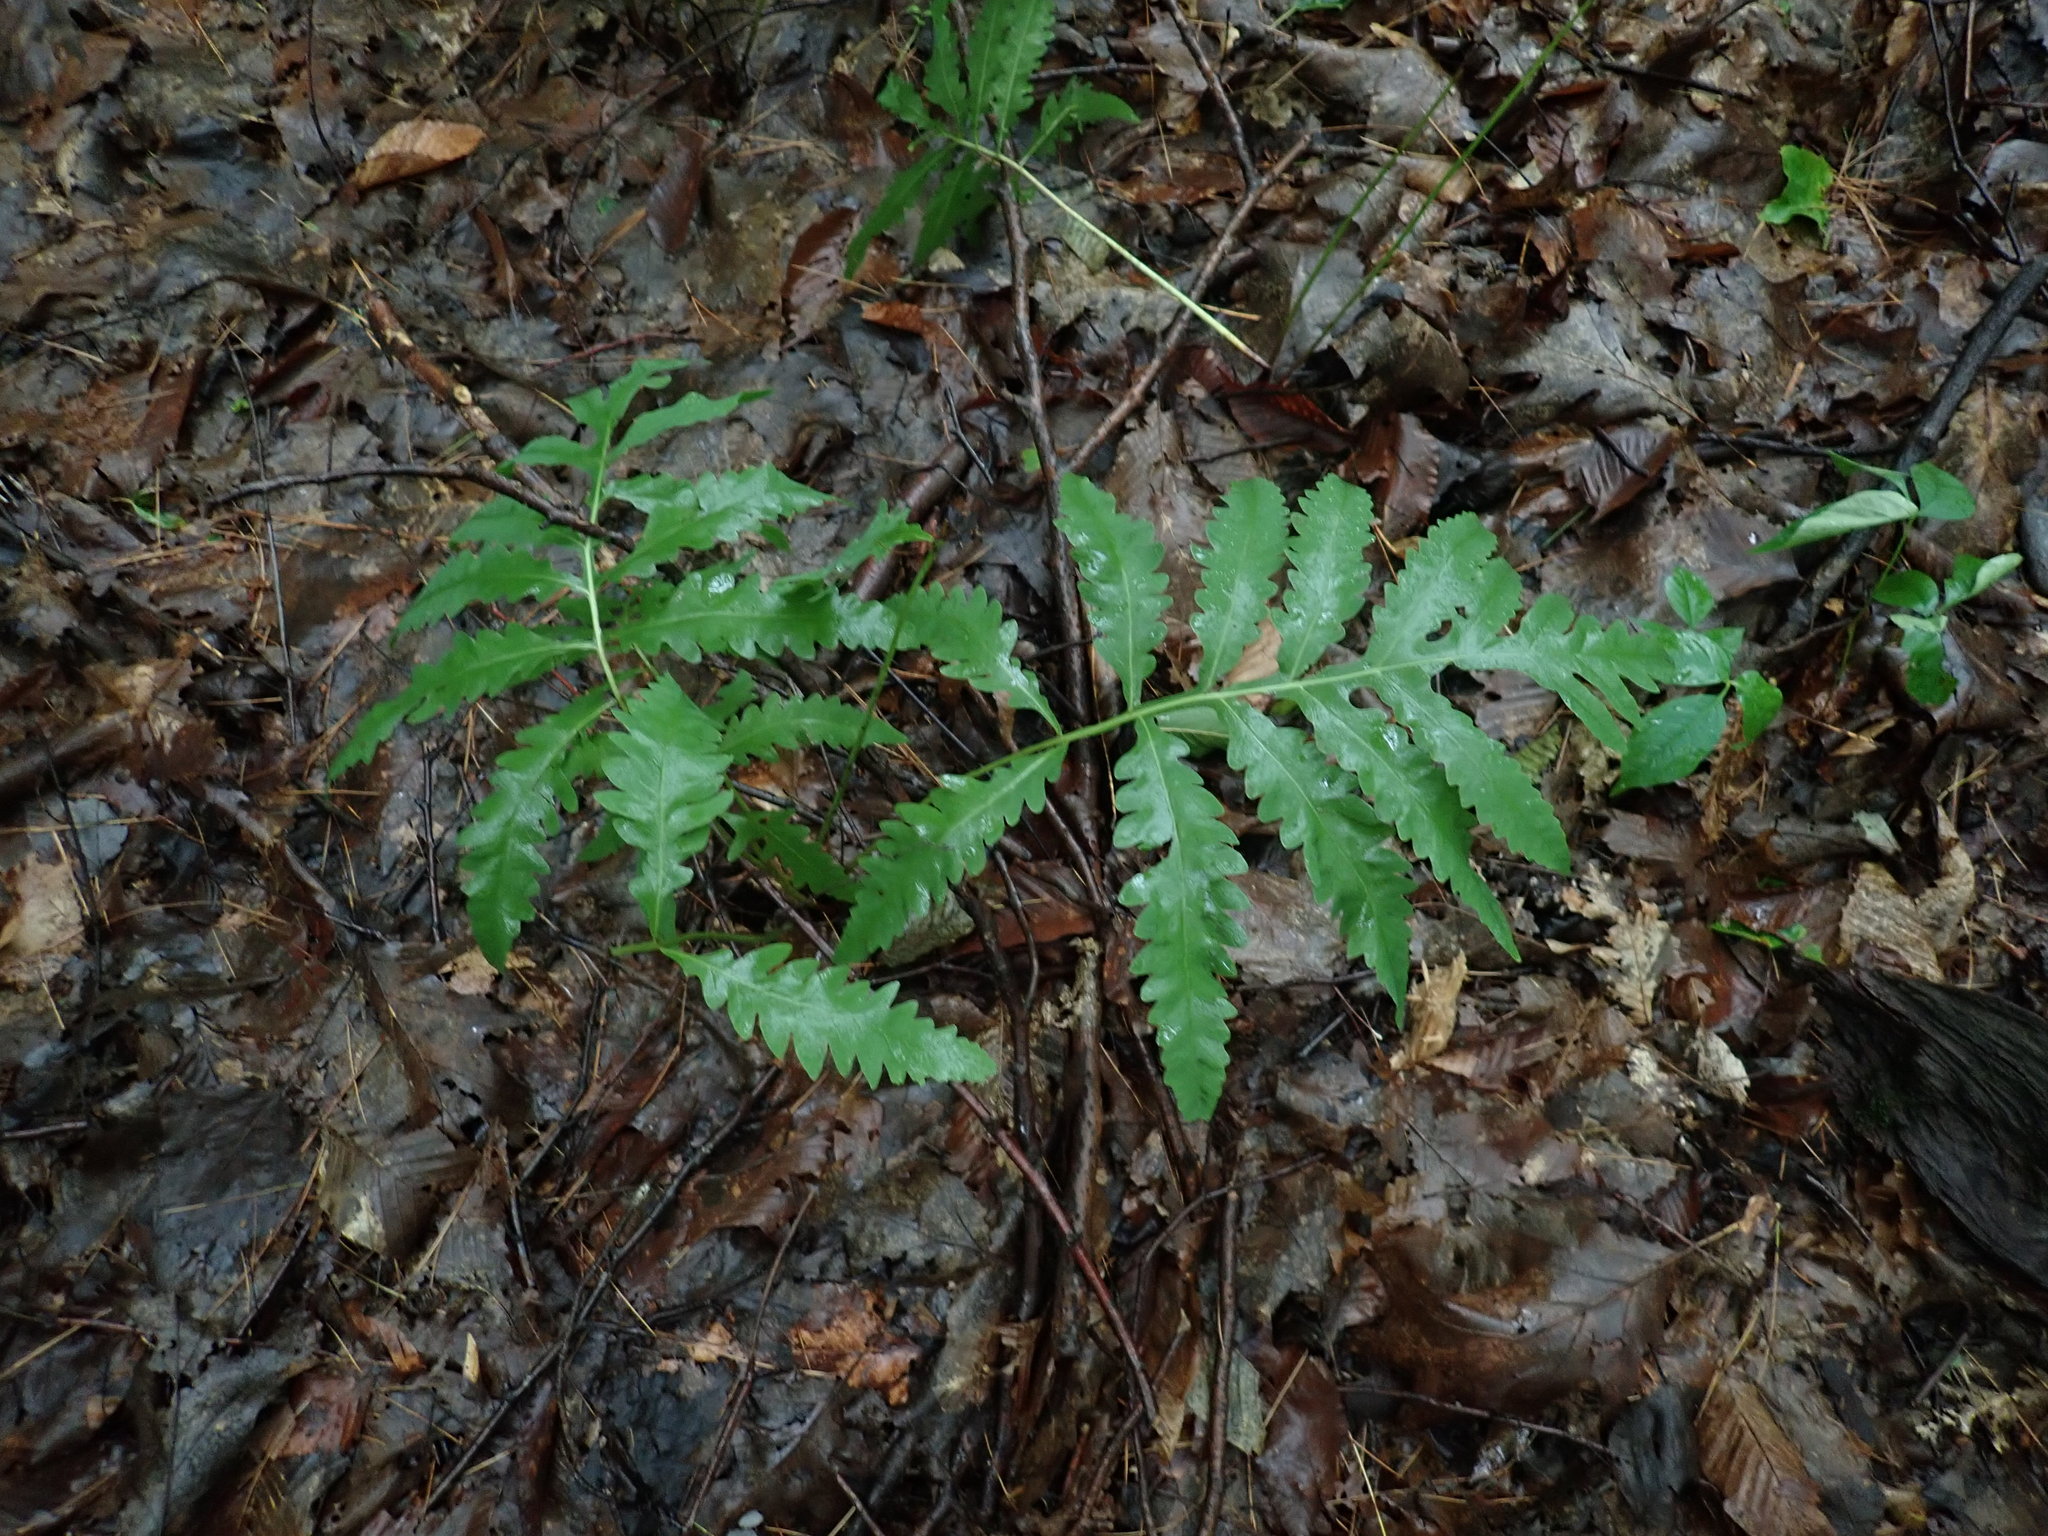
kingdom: Plantae
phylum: Tracheophyta
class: Polypodiopsida
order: Polypodiales
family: Onocleaceae
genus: Onoclea
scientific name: Onoclea sensibilis
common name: Sensitive fern
